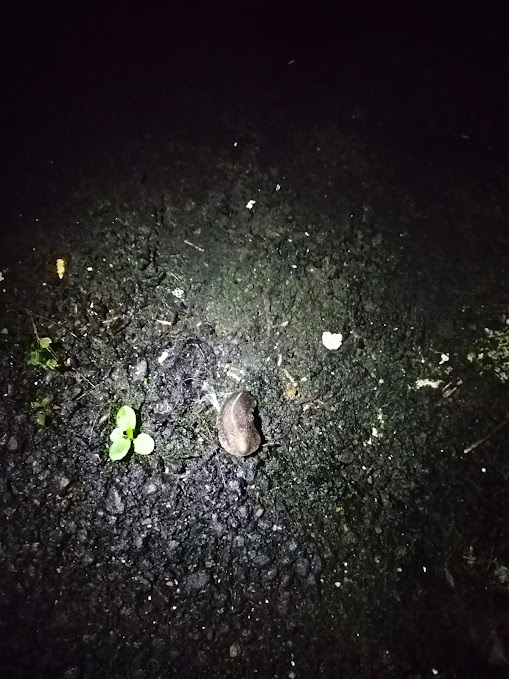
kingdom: Animalia
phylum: Mollusca
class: Gastropoda
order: Systellommatophora
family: Veronicellidae
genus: Laevicaulis
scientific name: Laevicaulis alte
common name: Tropical leatherleaf
